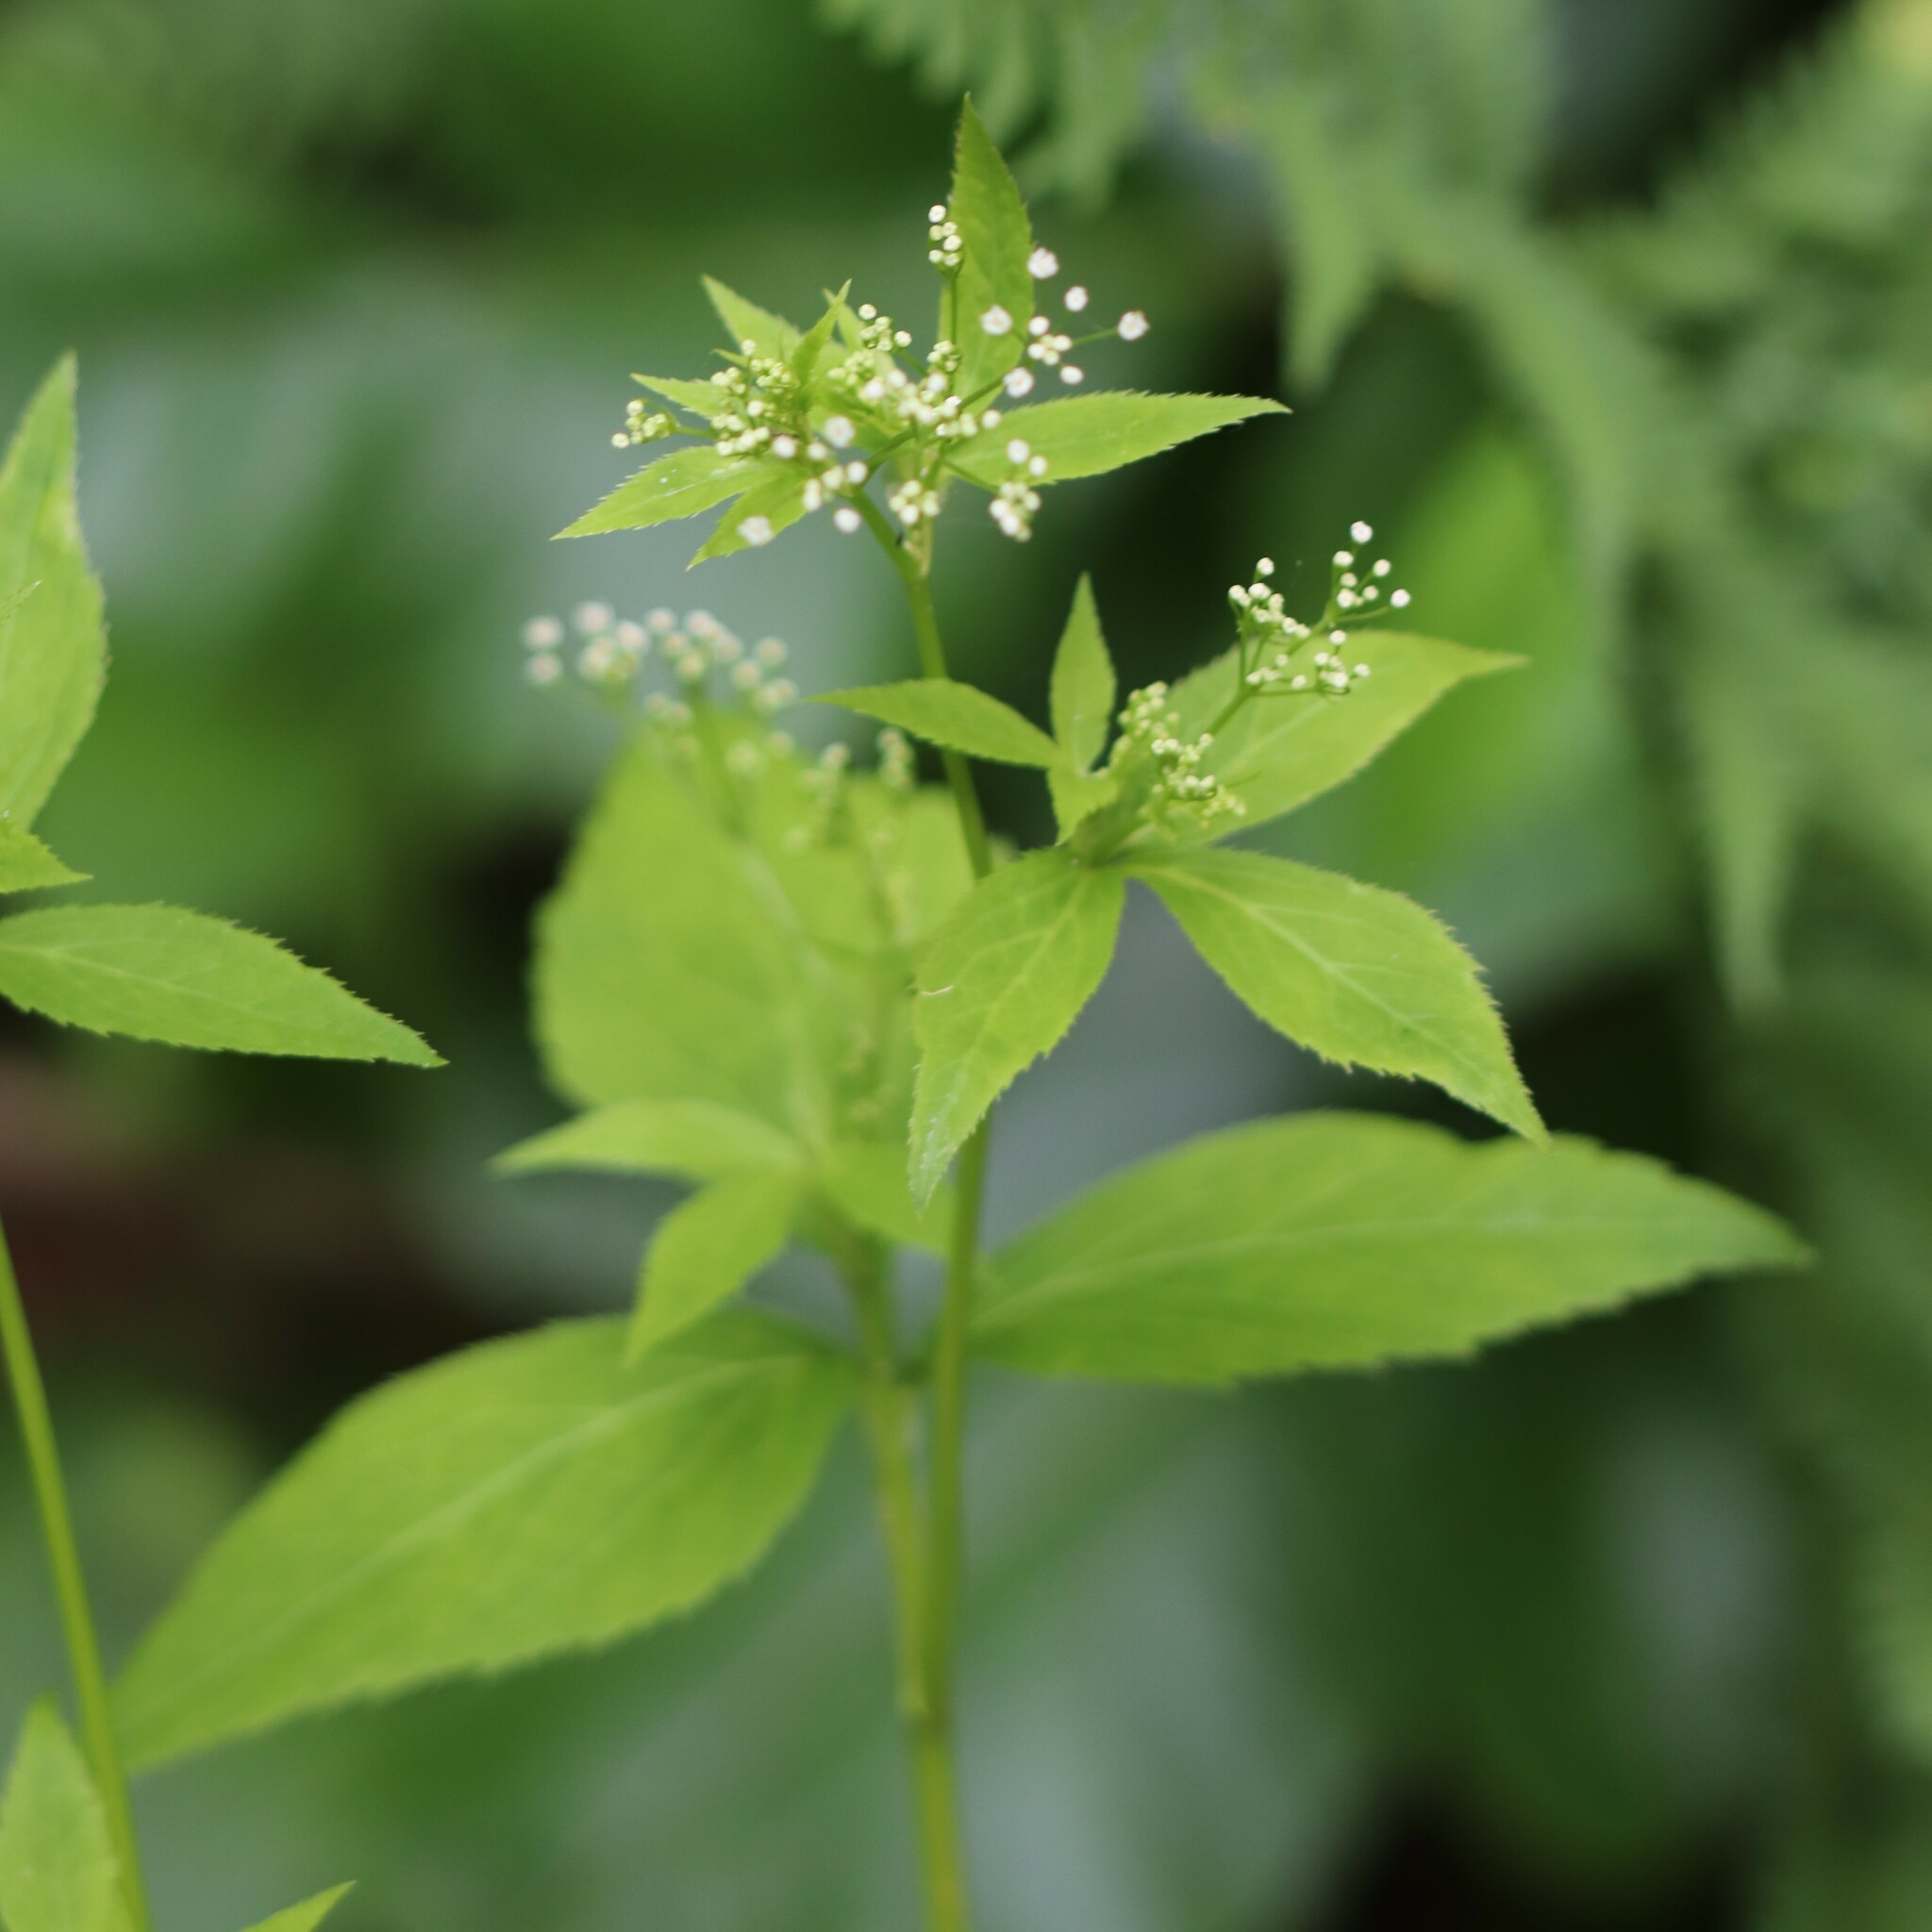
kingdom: Plantae
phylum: Tracheophyta
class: Magnoliopsida
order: Apiales
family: Apiaceae
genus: Cryptotaenia
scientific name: Cryptotaenia canadensis
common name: Honewort
